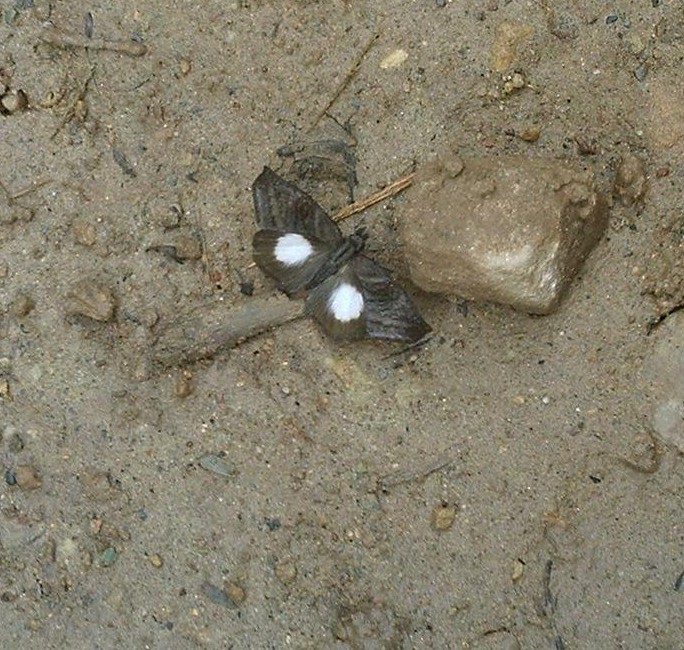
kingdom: Animalia
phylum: Arthropoda
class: Insecta
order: Lepidoptera
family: Hesperiidae
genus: Theagenes
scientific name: Theagenes albiplaga
